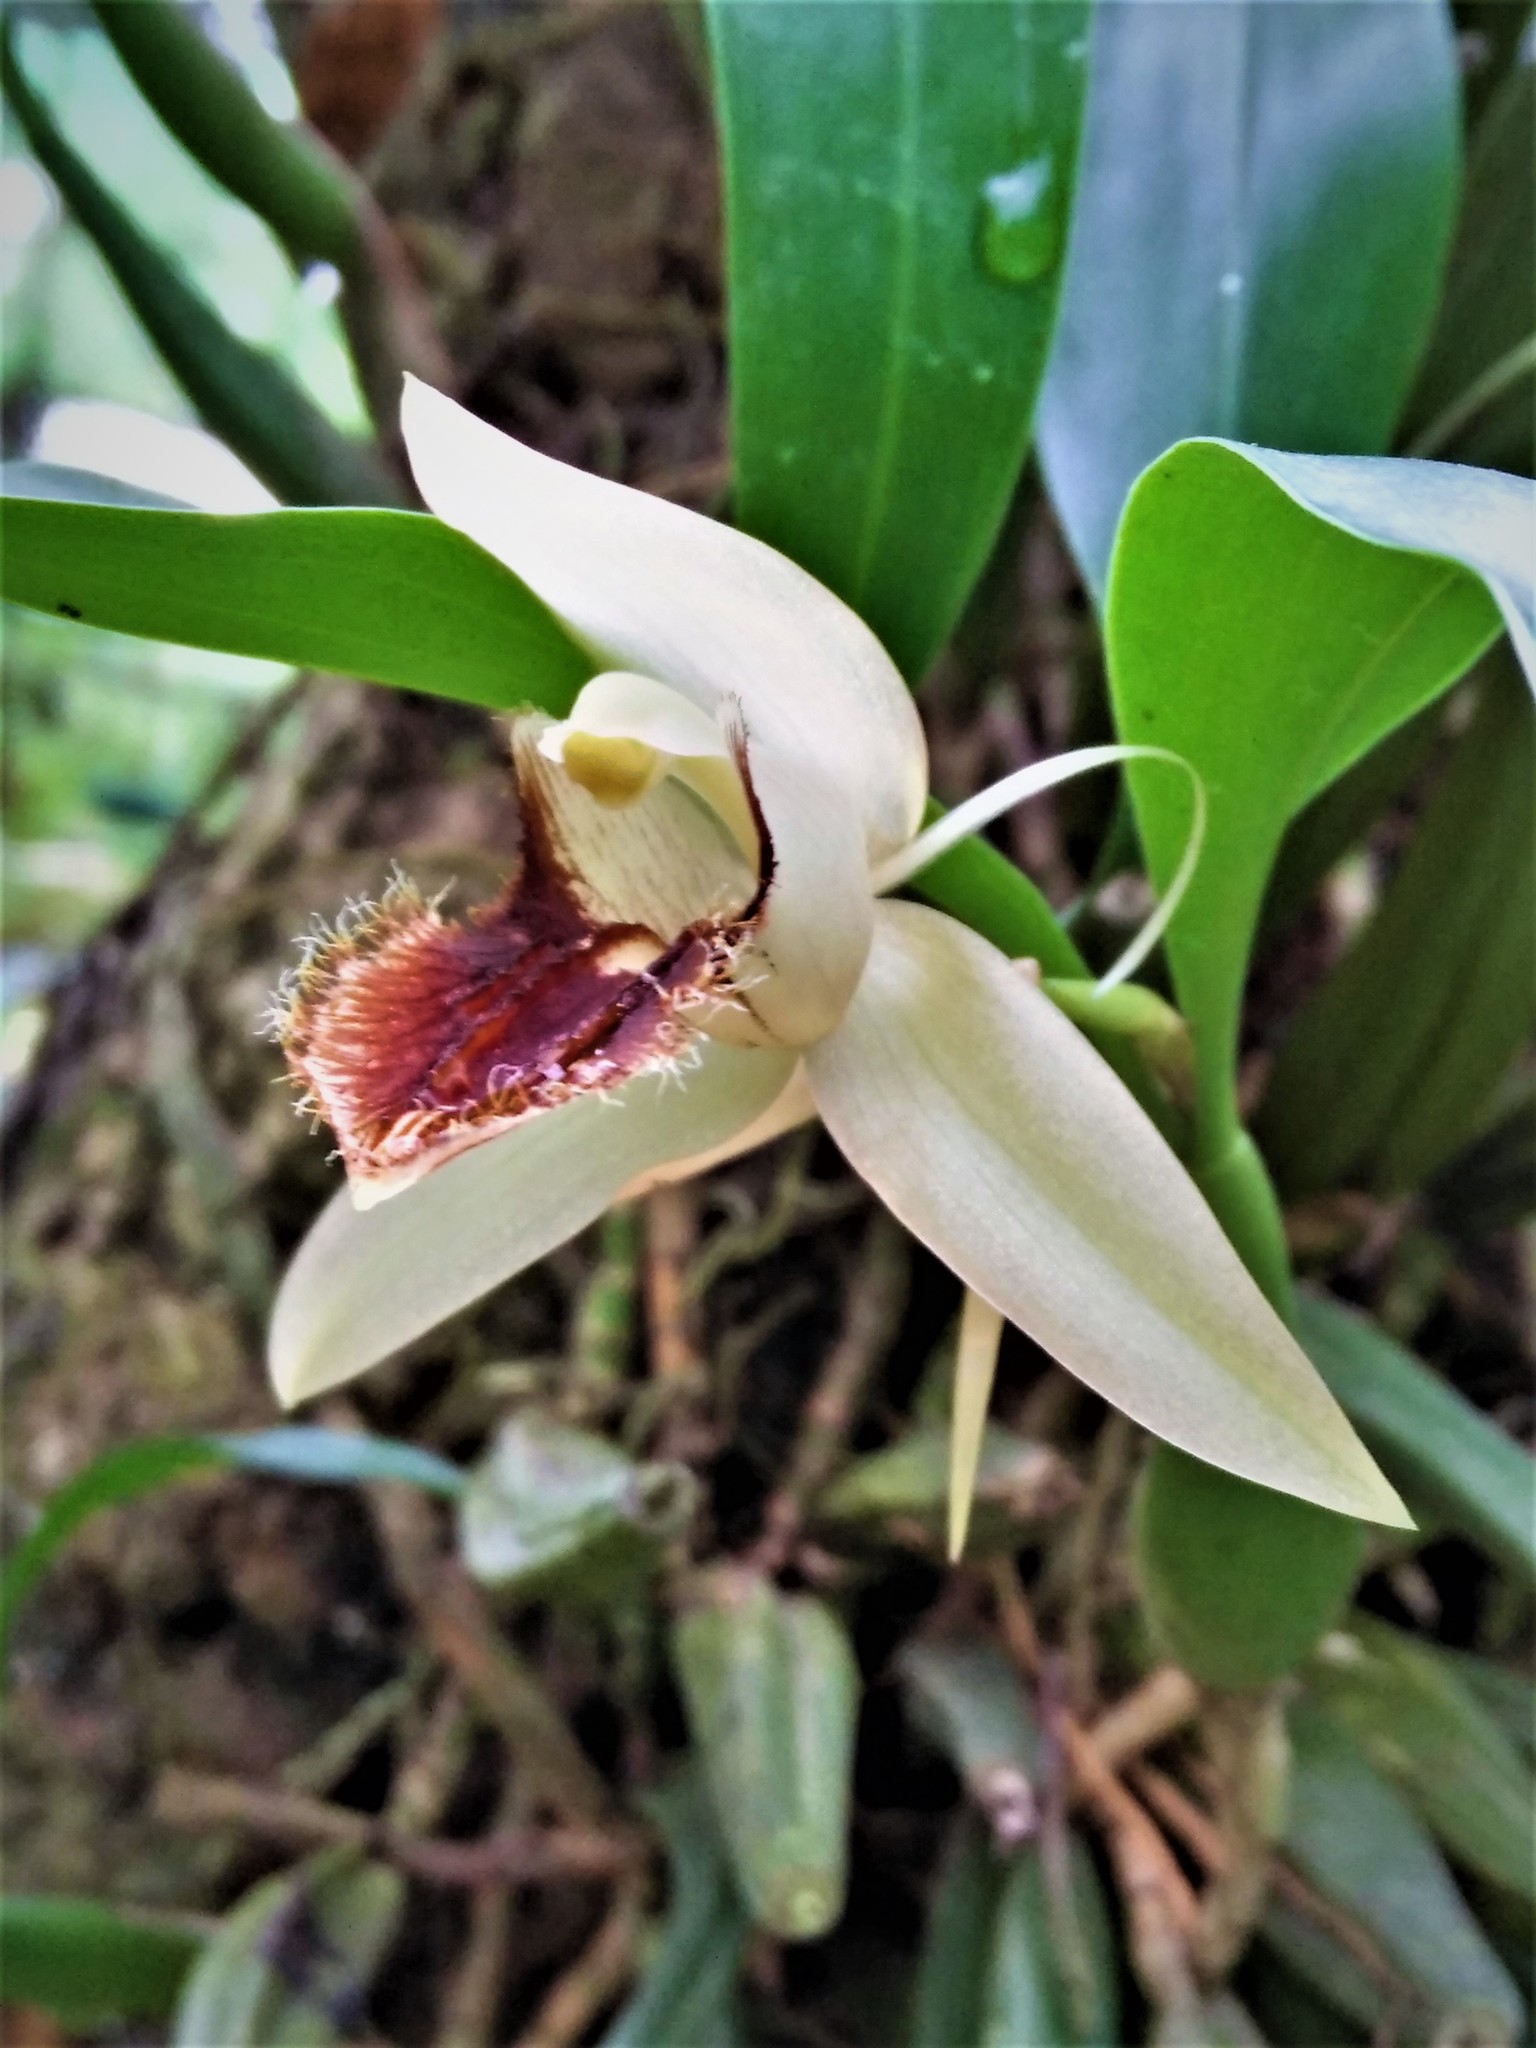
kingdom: Plantae
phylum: Tracheophyta
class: Liliopsida
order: Asparagales
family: Orchidaceae
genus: Coelogyne
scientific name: Coelogyne fimbriata
